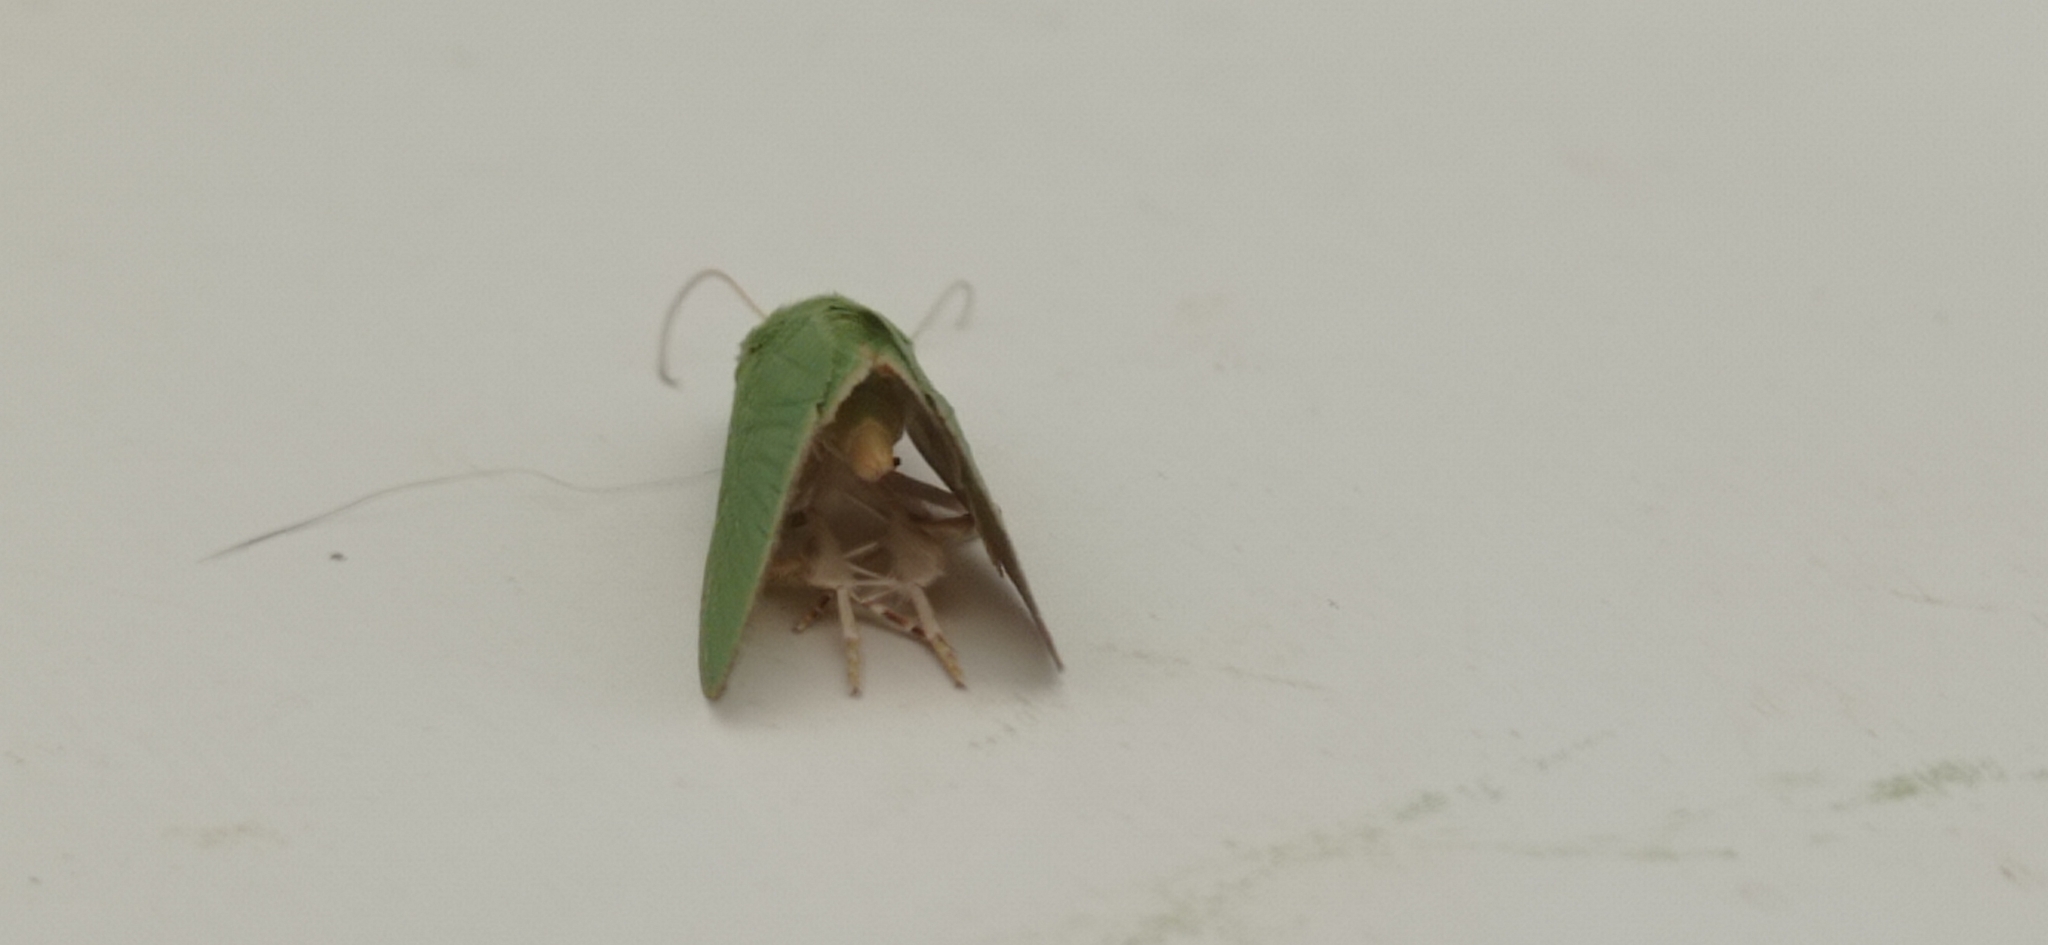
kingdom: Animalia
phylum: Arthropoda
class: Insecta
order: Lepidoptera
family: Erebidae
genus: Eulepidotis
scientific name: Eulepidotis viridissima
